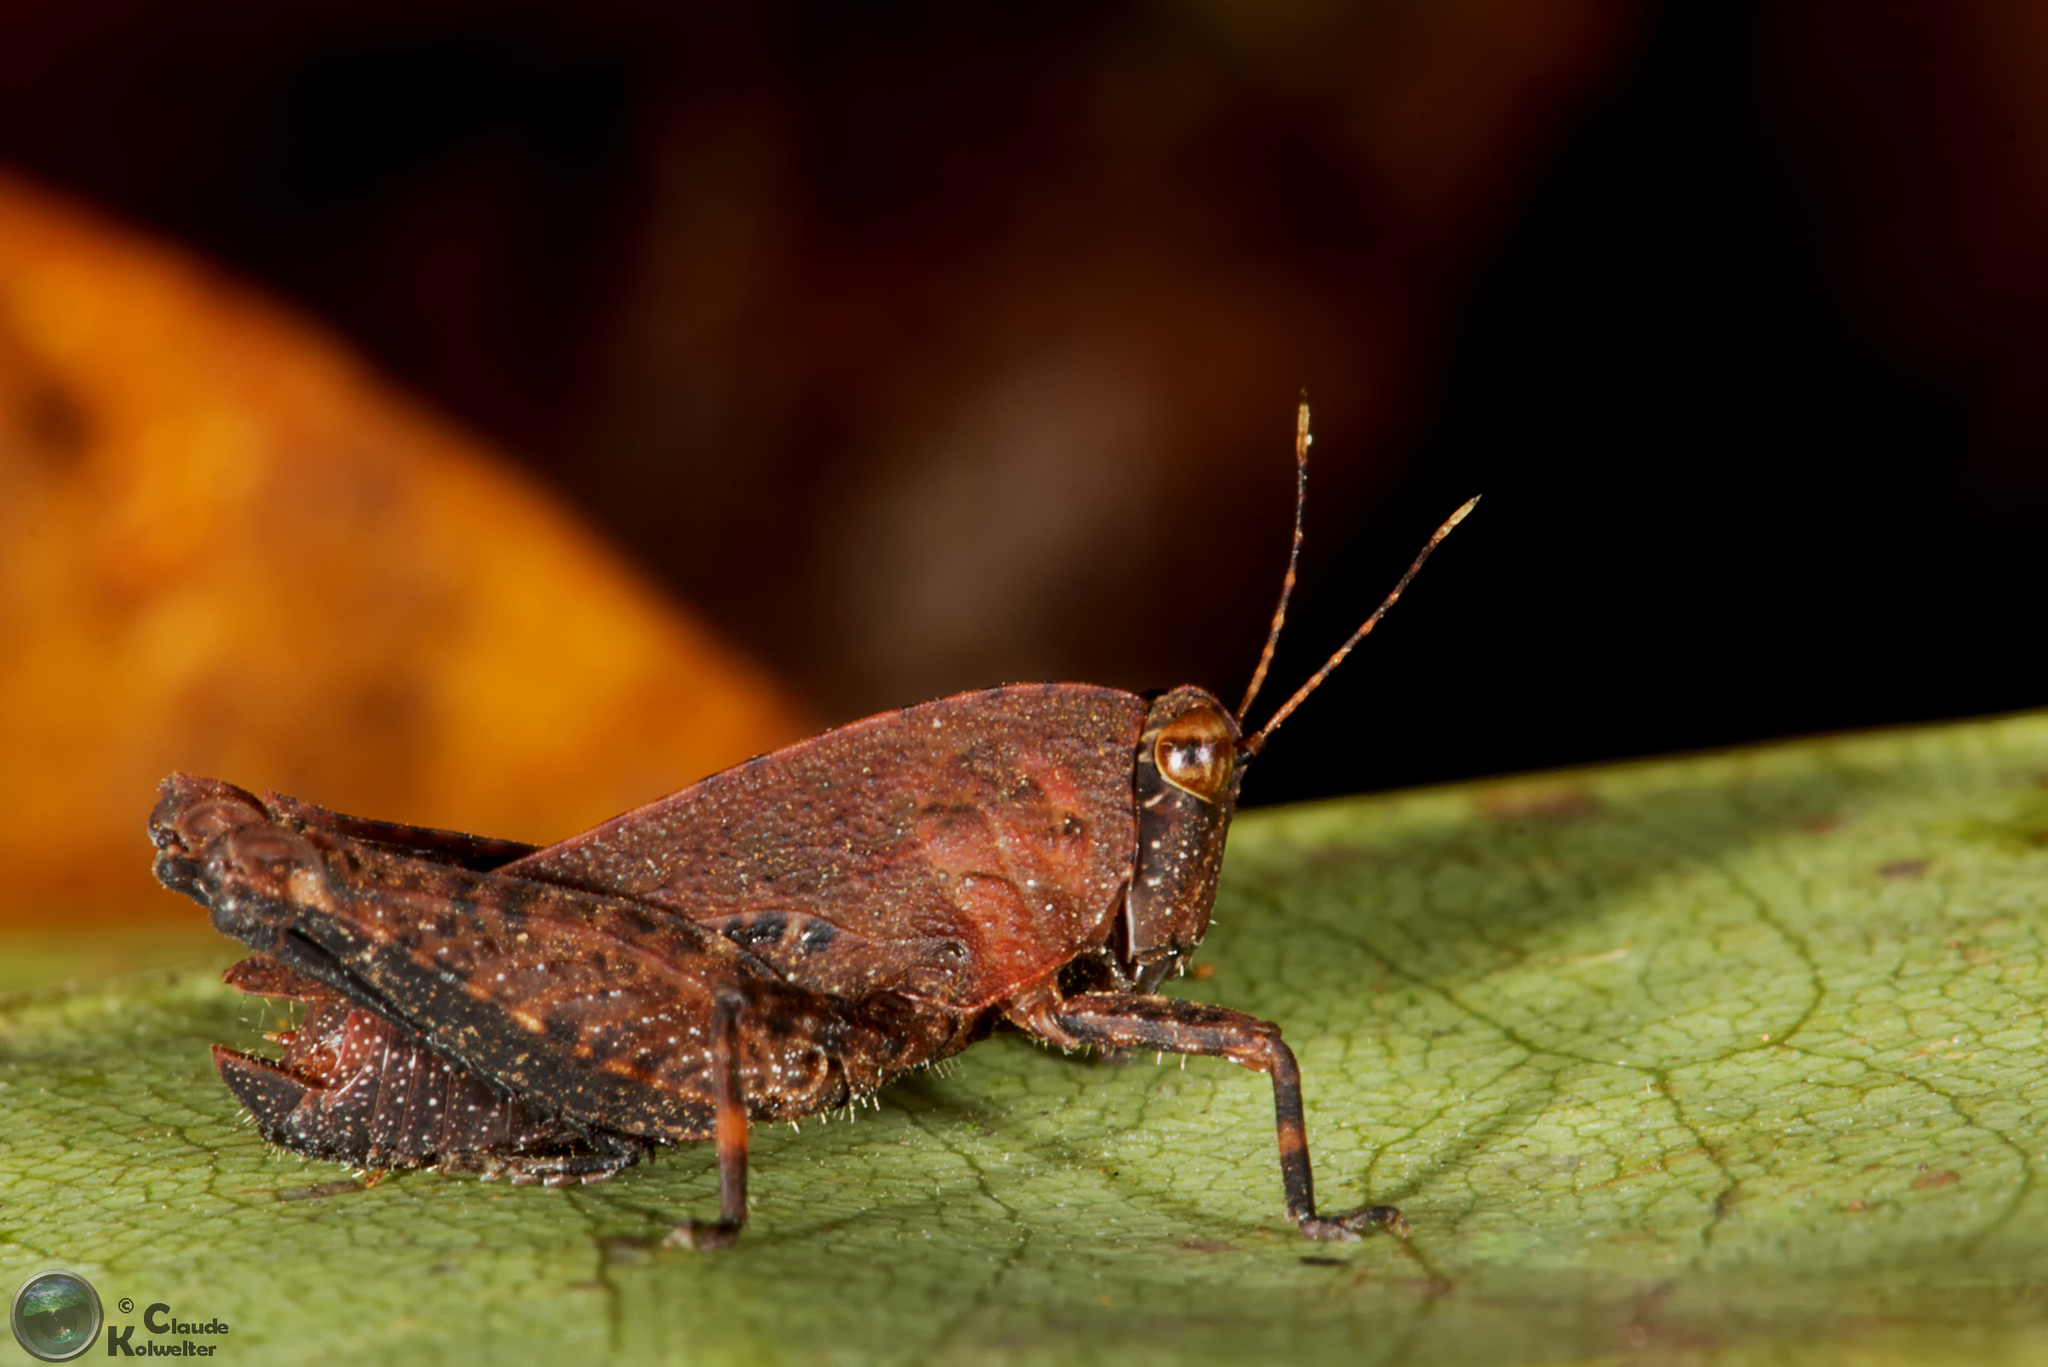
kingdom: Animalia
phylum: Arthropoda
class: Insecta
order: Orthoptera
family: Tetrigidae
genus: Coptottigia
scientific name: Coptottigia cristata
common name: Seychelles crested groundhopper
